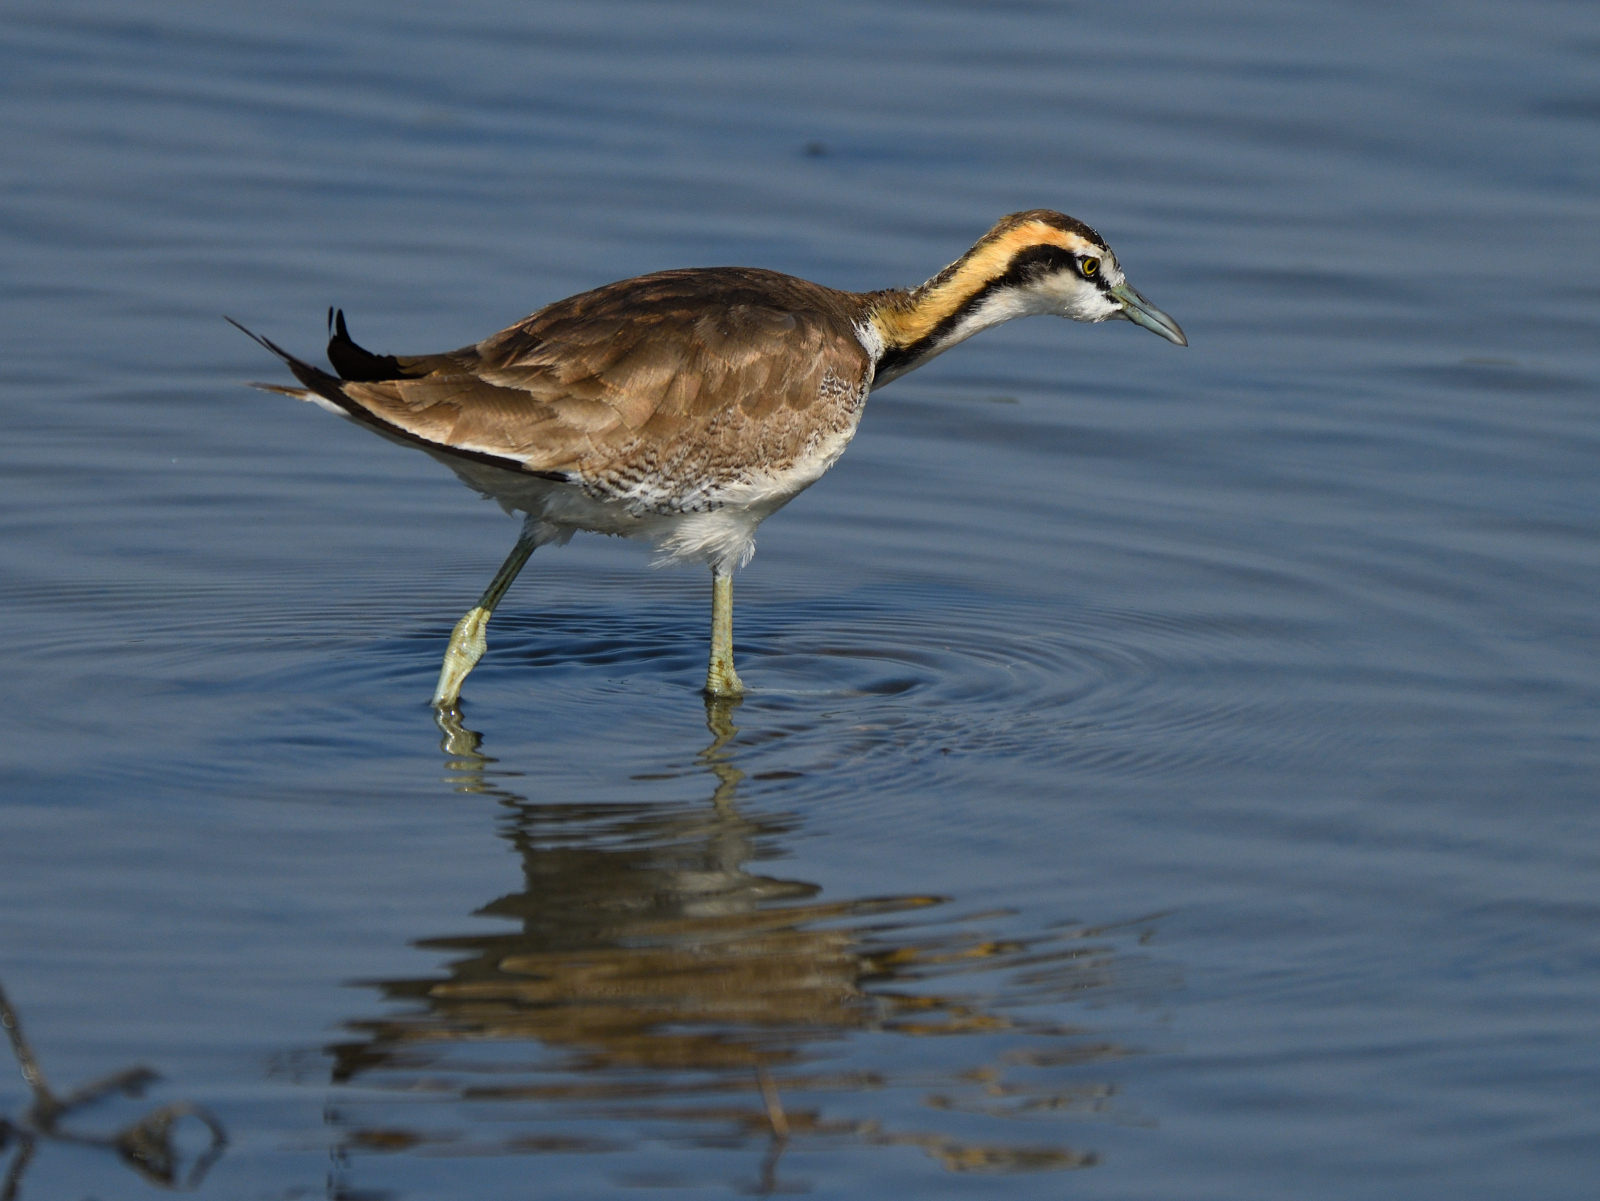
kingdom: Animalia
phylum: Chordata
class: Aves
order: Charadriiformes
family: Jacanidae
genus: Hydrophasianus
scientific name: Hydrophasianus chirurgus
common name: Pheasant-tailed jacana
